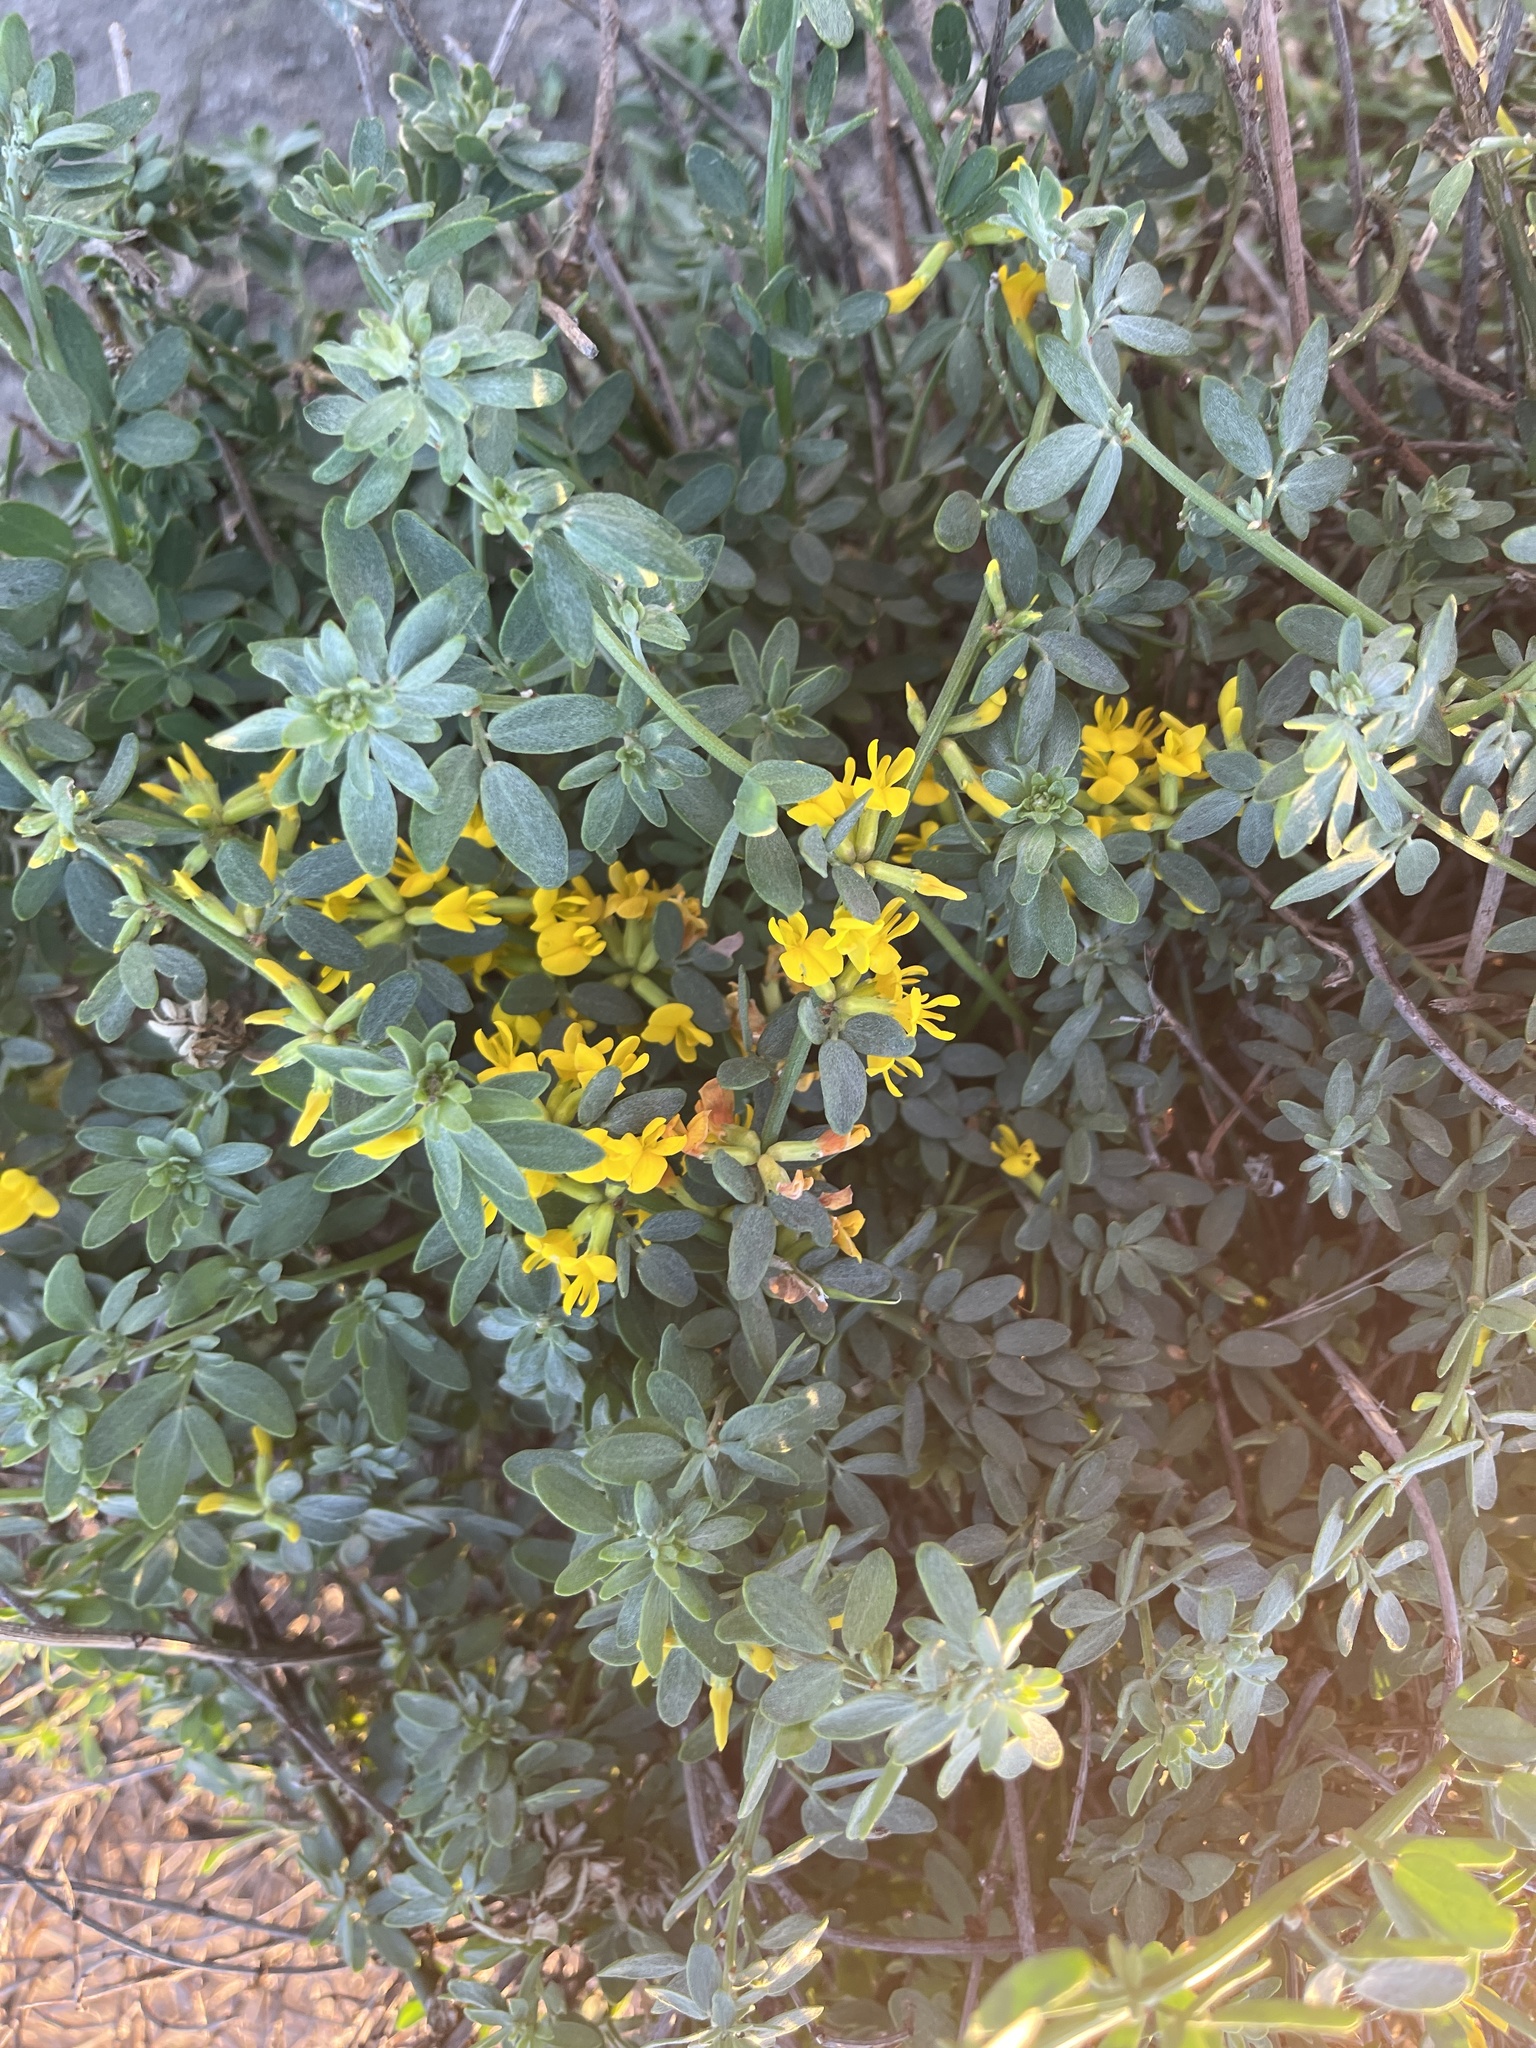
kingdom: Plantae
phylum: Tracheophyta
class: Magnoliopsida
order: Fabales
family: Fabaceae
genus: Acmispon
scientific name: Acmispon glaber
